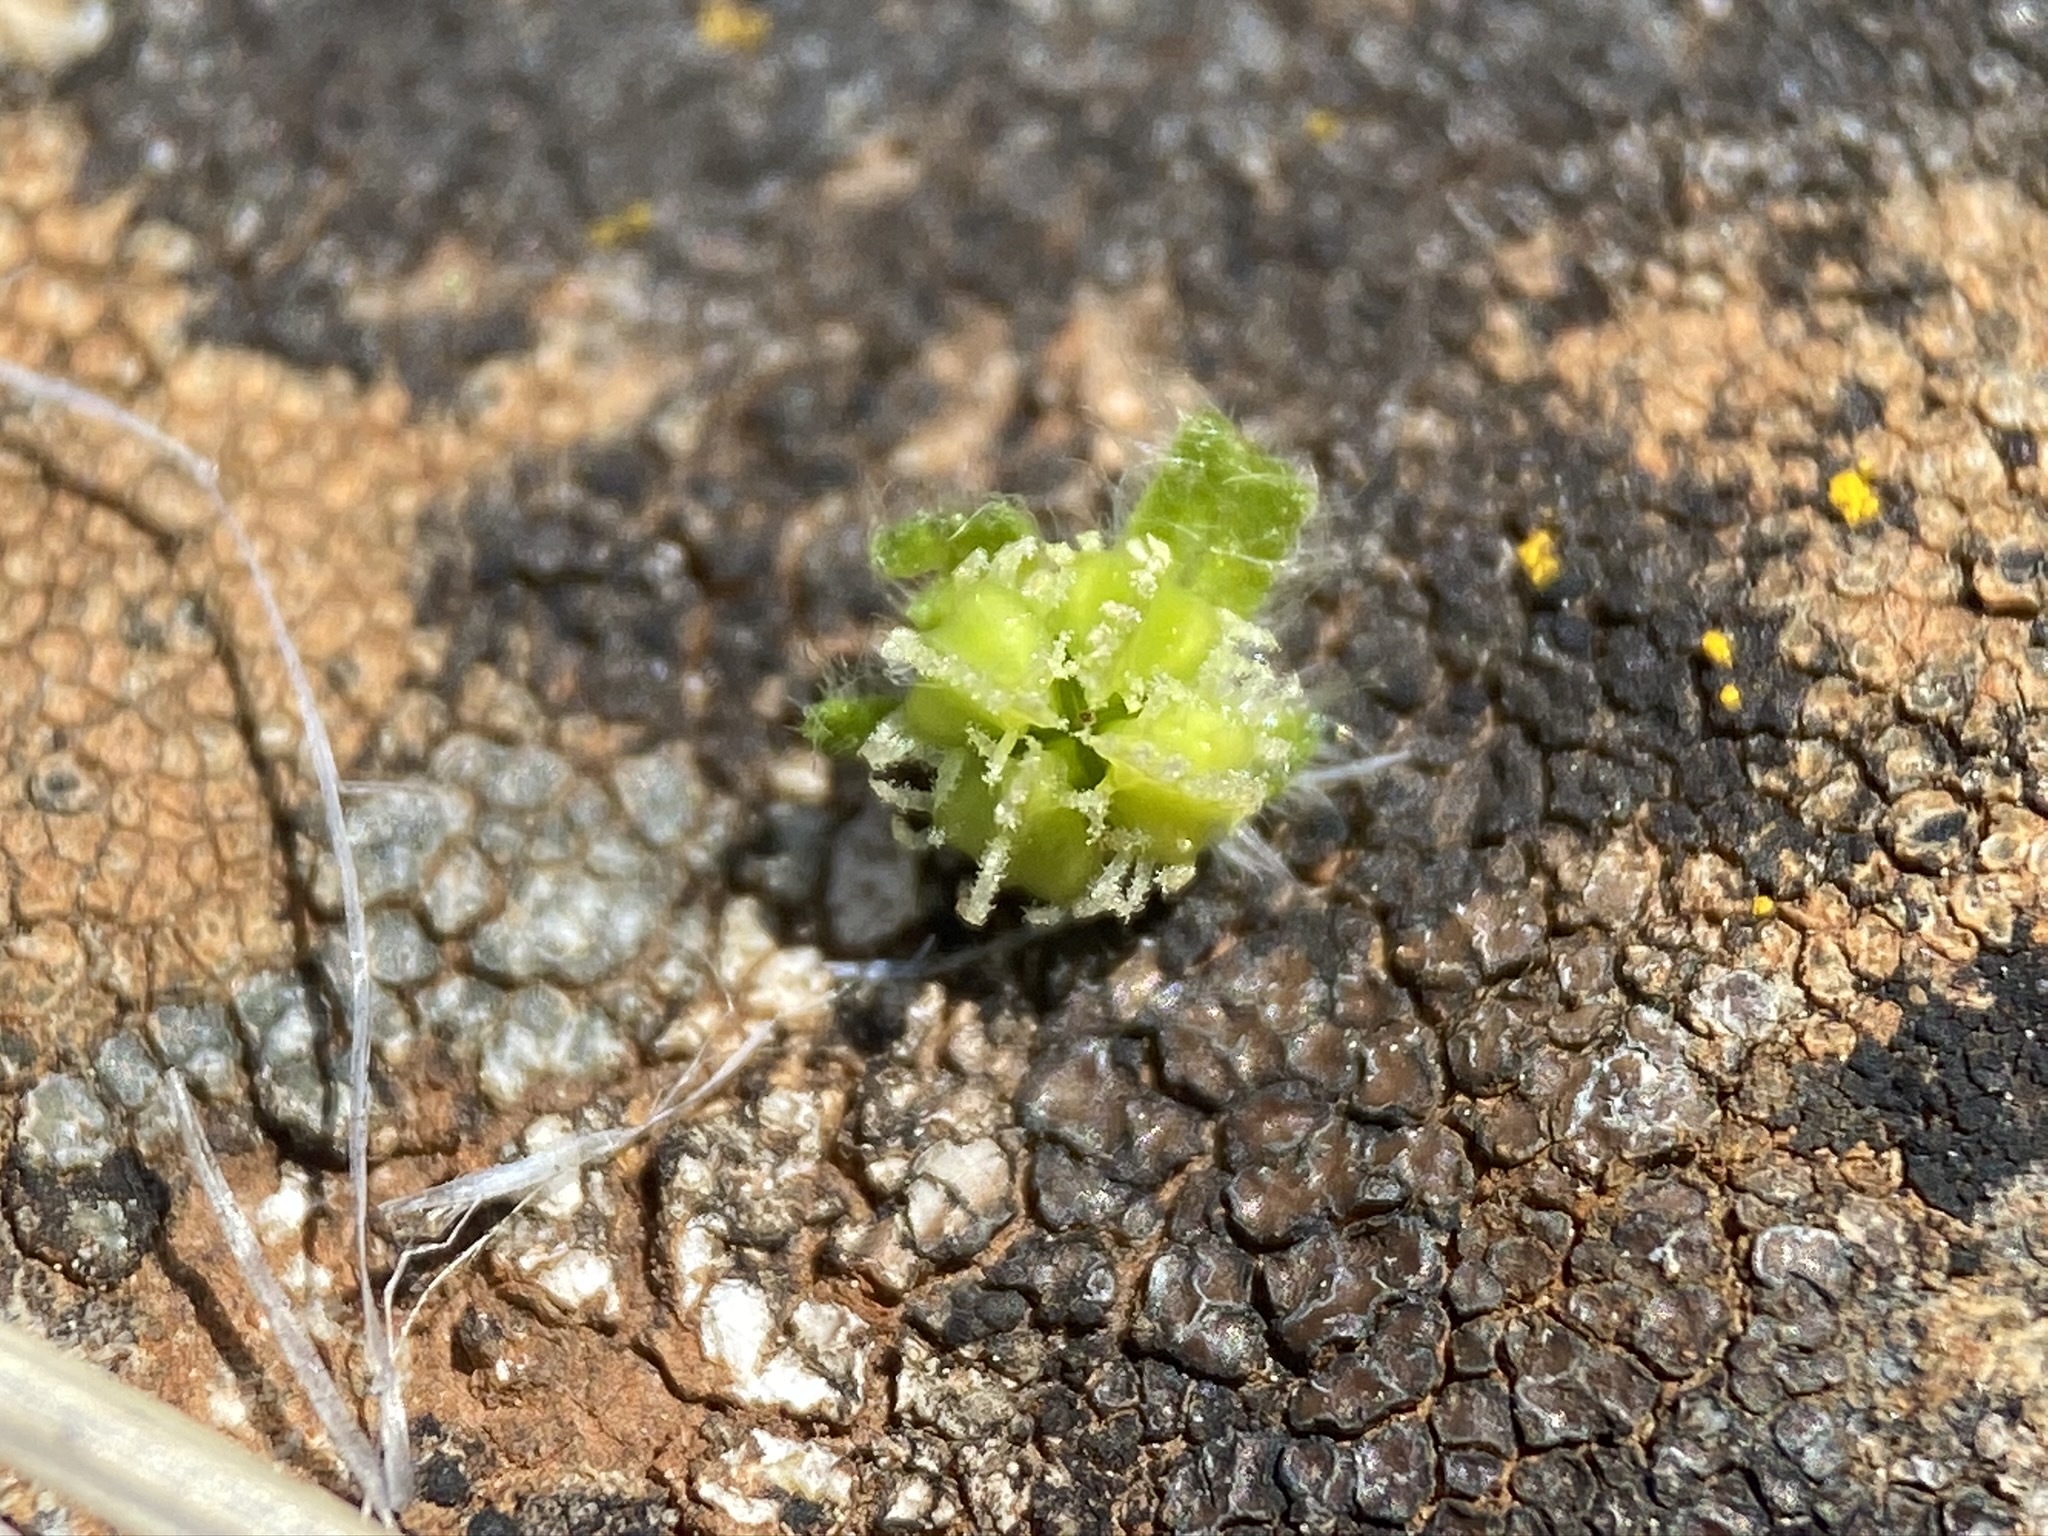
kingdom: Plantae
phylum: Tracheophyta
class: Magnoliopsida
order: Boraginales
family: Boraginaceae
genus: Plagiobothrys
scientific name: Plagiobothrys austinae
